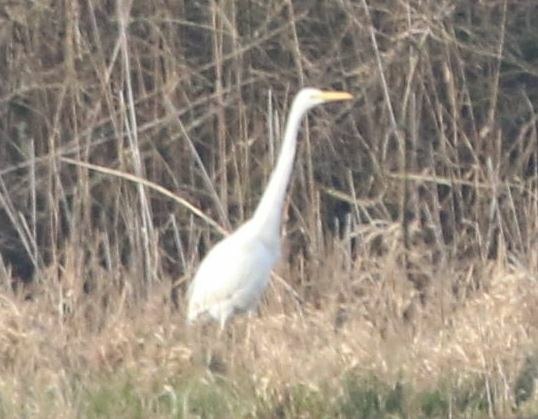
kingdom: Animalia
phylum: Chordata
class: Aves
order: Pelecaniformes
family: Ardeidae
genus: Ardea
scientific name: Ardea alba
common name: Great egret
